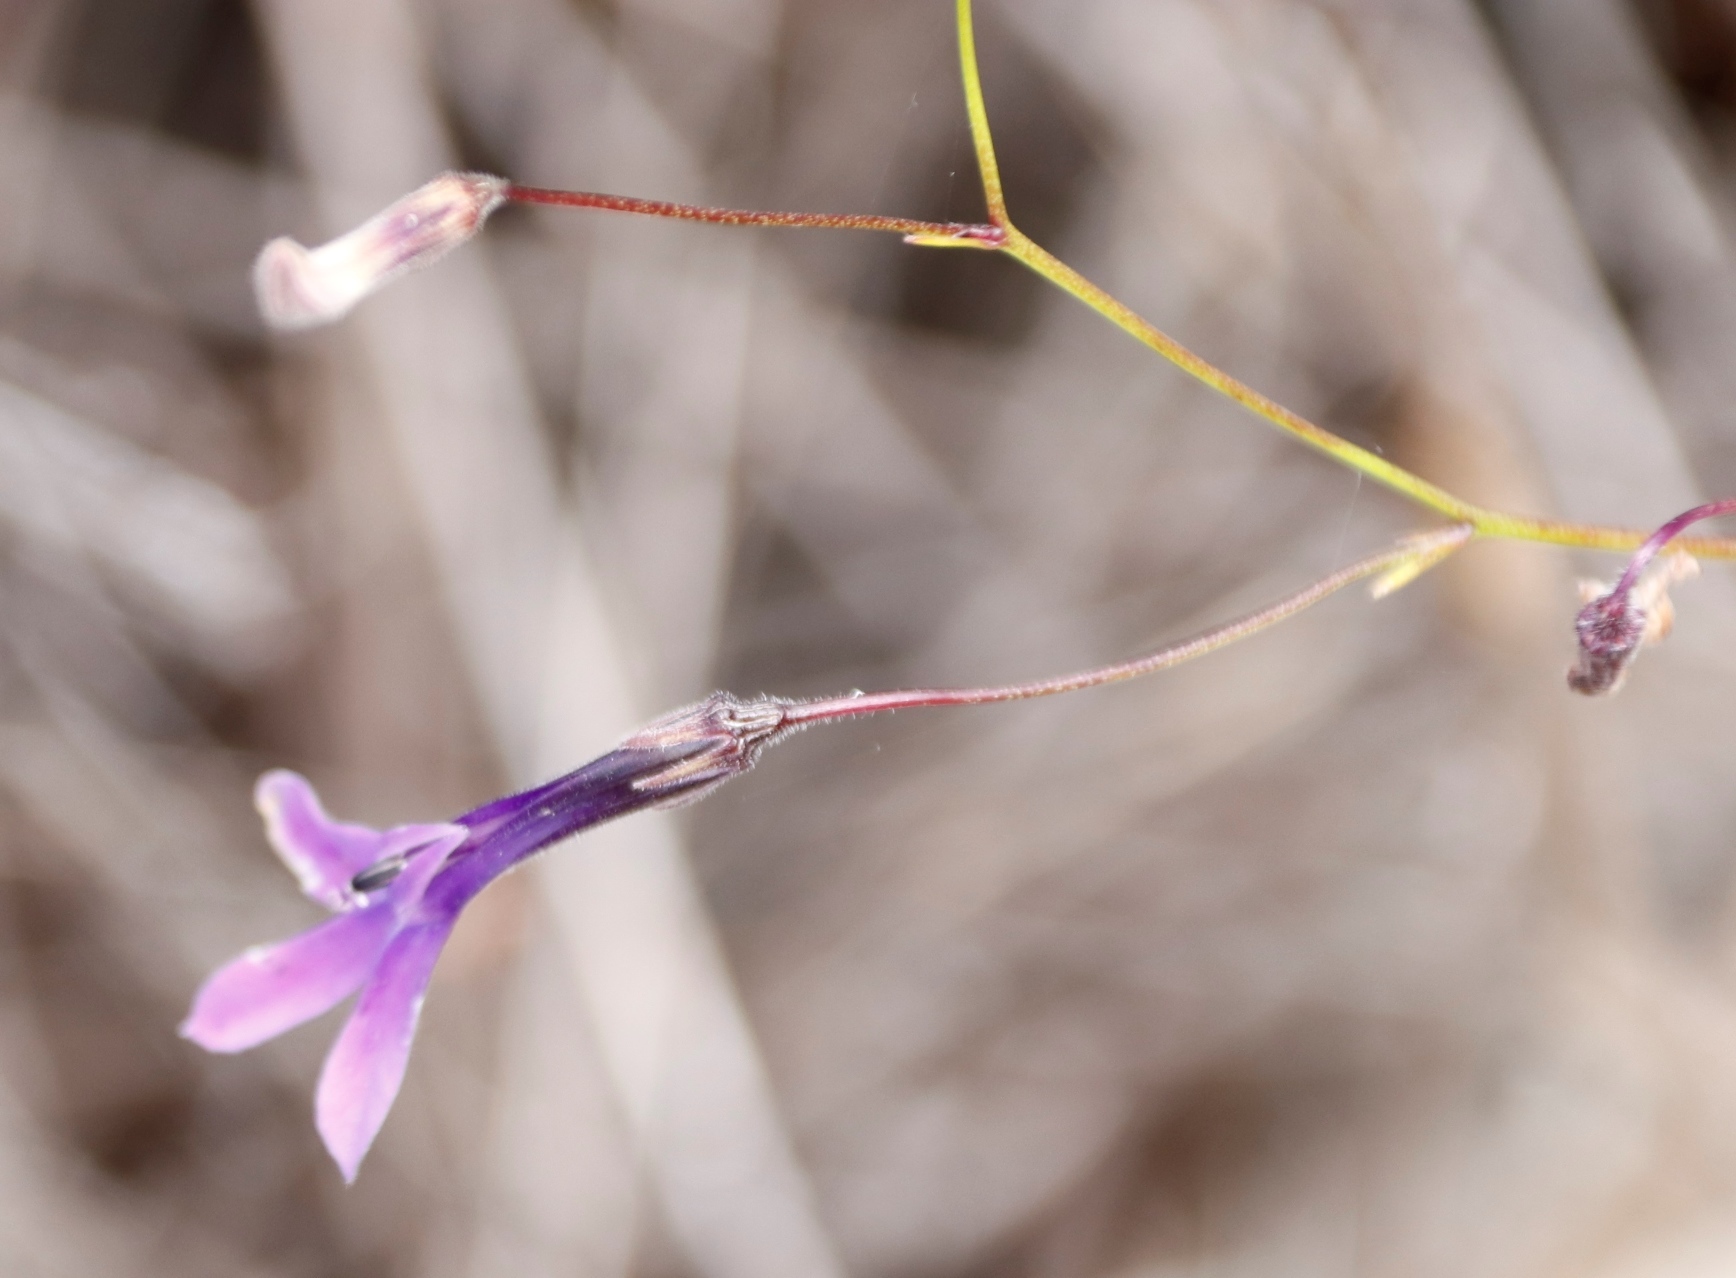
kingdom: Plantae
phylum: Tracheophyta
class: Magnoliopsida
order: Asterales
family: Campanulaceae
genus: Lobelia
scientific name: Lobelia barkerae
